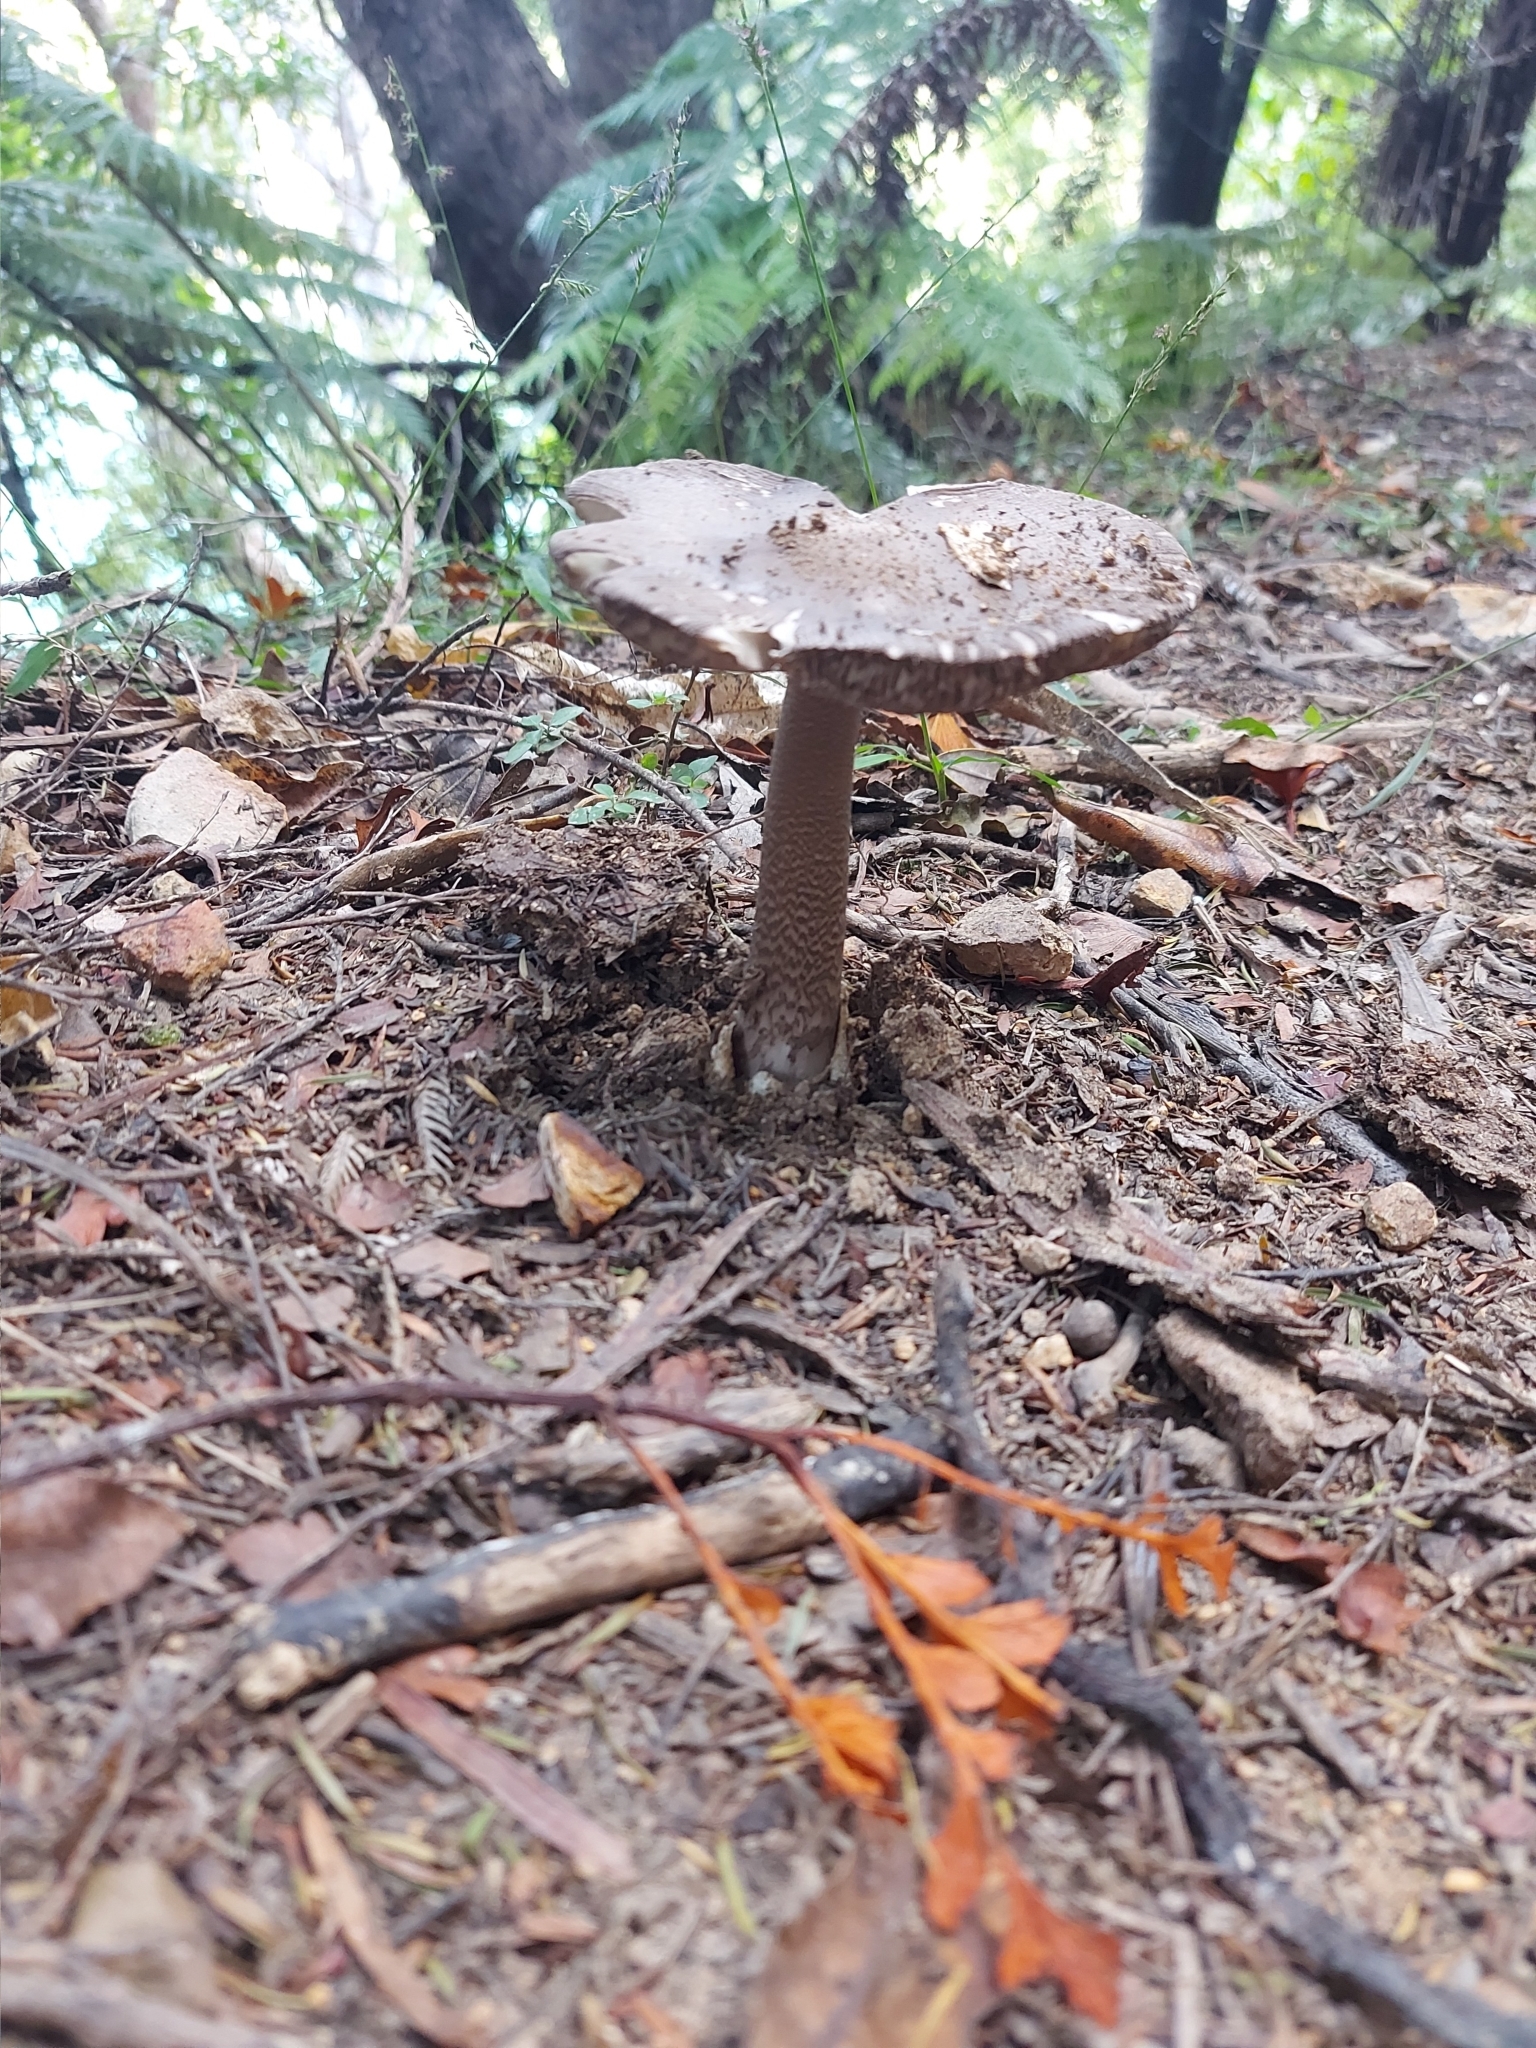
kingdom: Fungi
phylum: Basidiomycota
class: Agaricomycetes
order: Agaricales
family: Amanitaceae
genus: Amanita
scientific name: Amanita pekeoides
